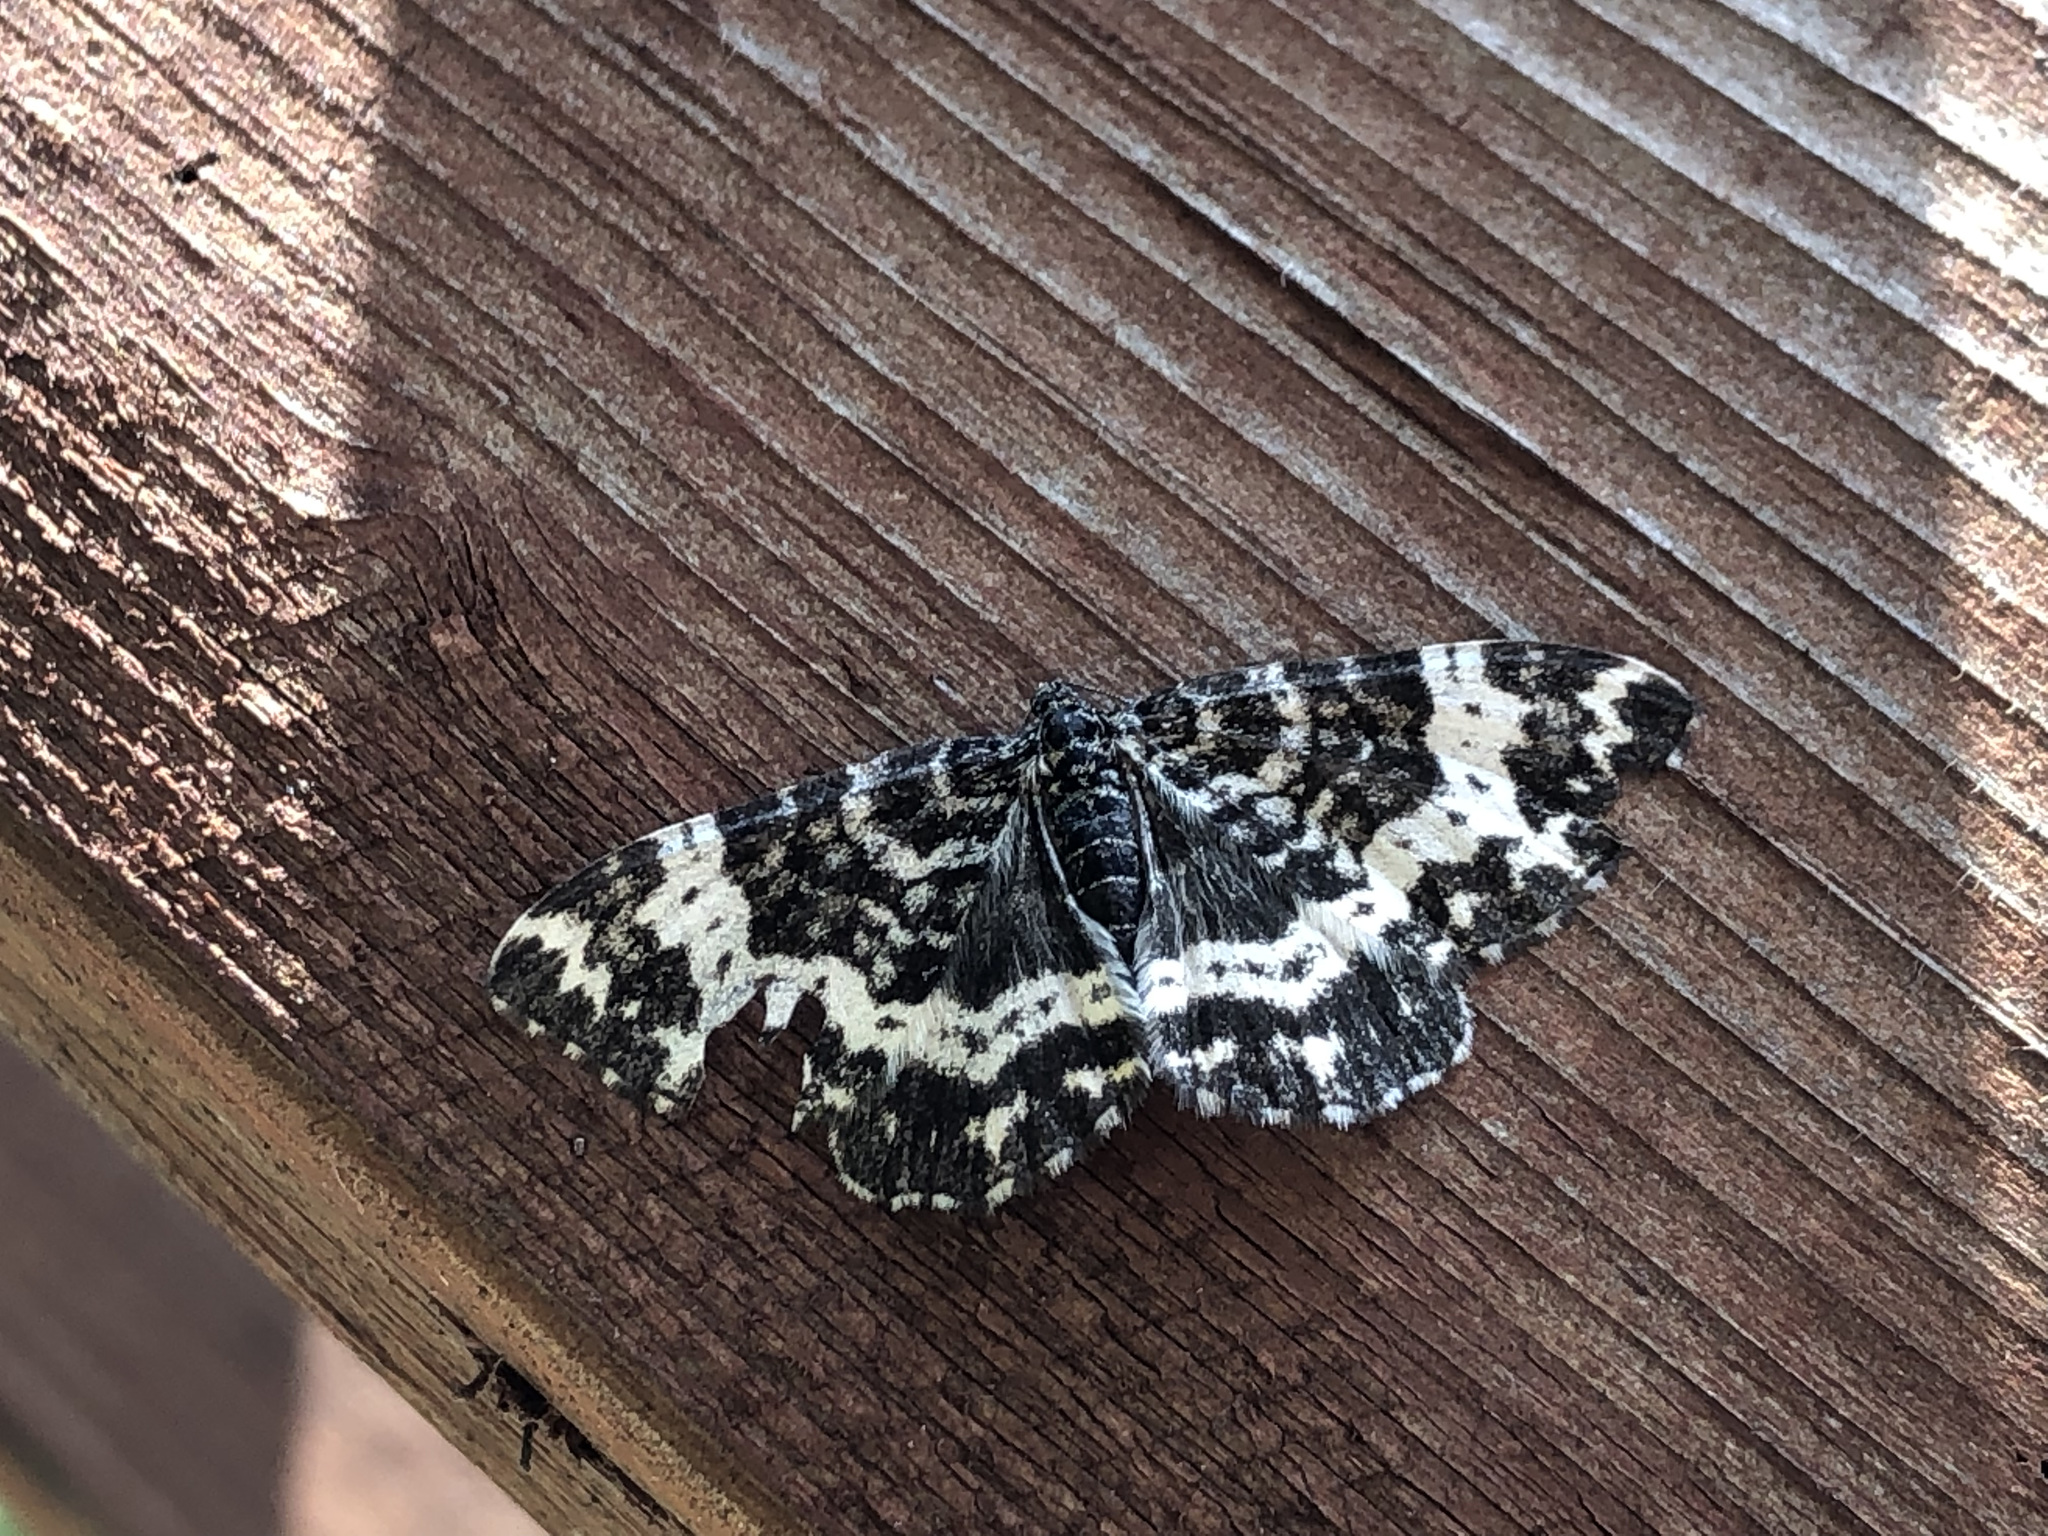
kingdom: Animalia
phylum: Arthropoda
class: Insecta
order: Lepidoptera
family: Geometridae
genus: Rheumaptera
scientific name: Rheumaptera
